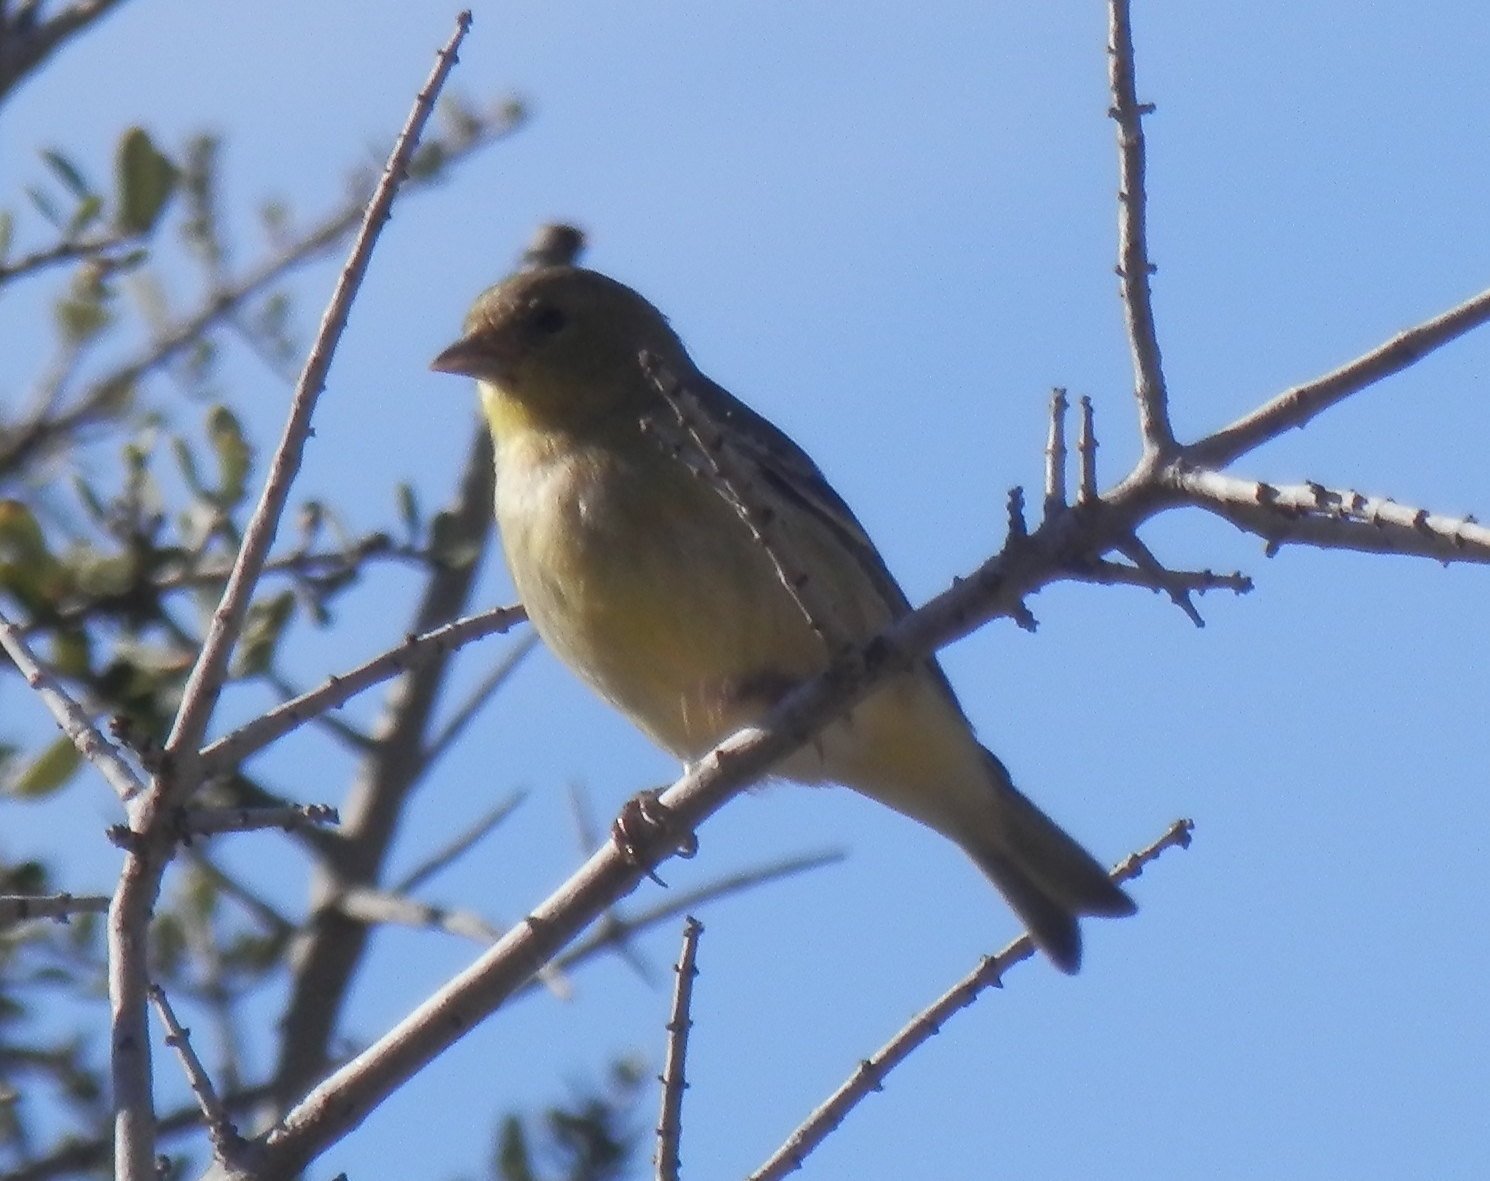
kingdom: Animalia
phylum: Chordata
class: Aves
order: Passeriformes
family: Fringillidae
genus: Spinus
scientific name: Spinus psaltria
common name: Lesser goldfinch
